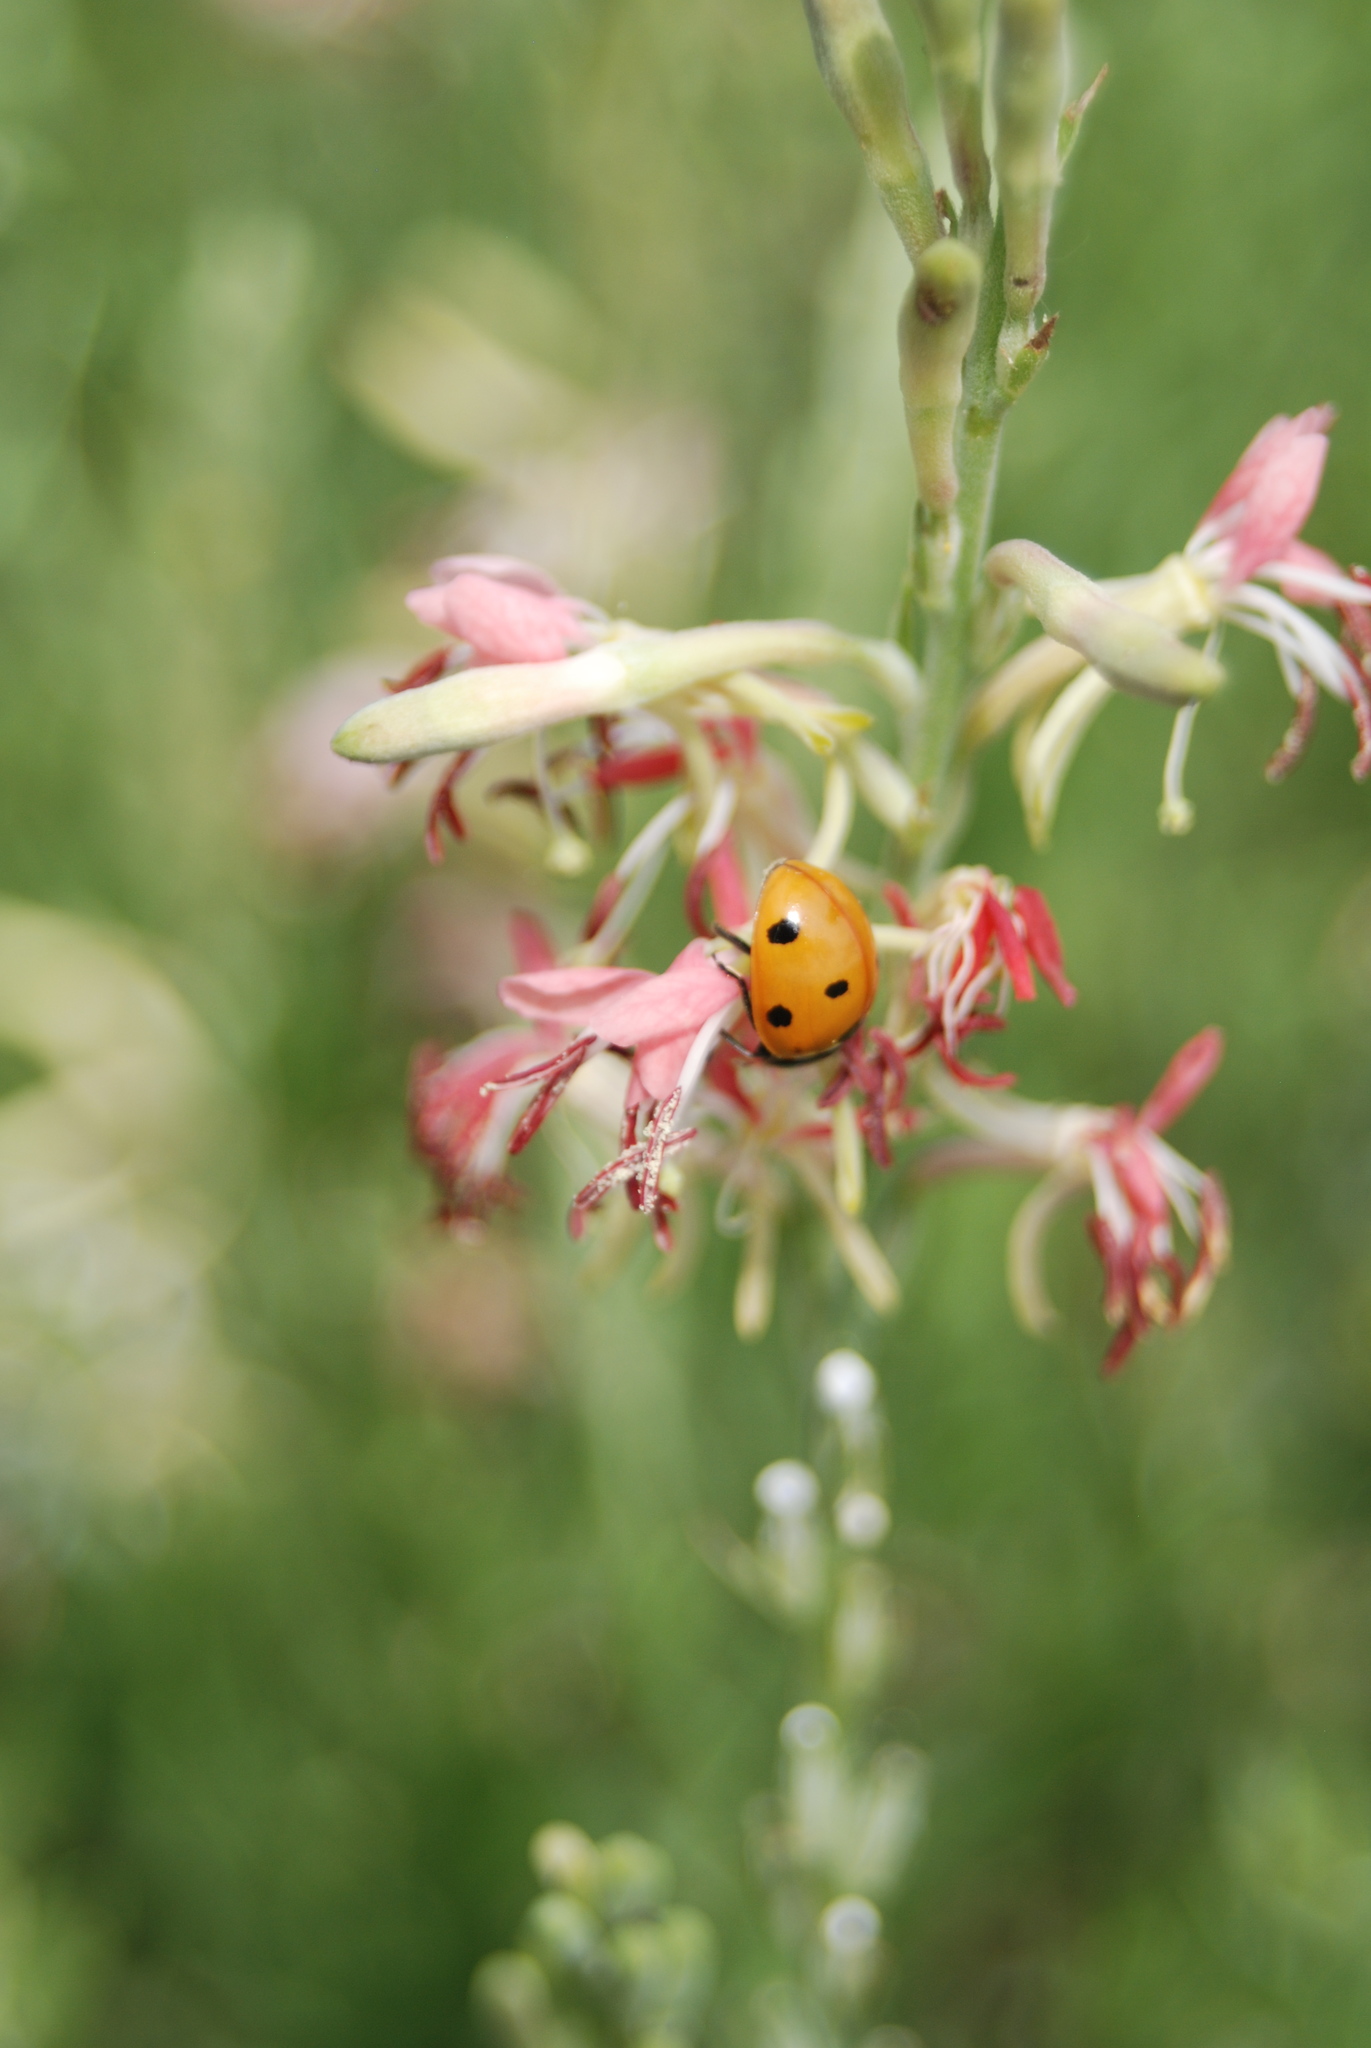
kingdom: Animalia
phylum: Arthropoda
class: Insecta
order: Coleoptera
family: Coccinellidae
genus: Coccinella
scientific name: Coccinella septempunctata
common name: Sevenspotted lady beetle
